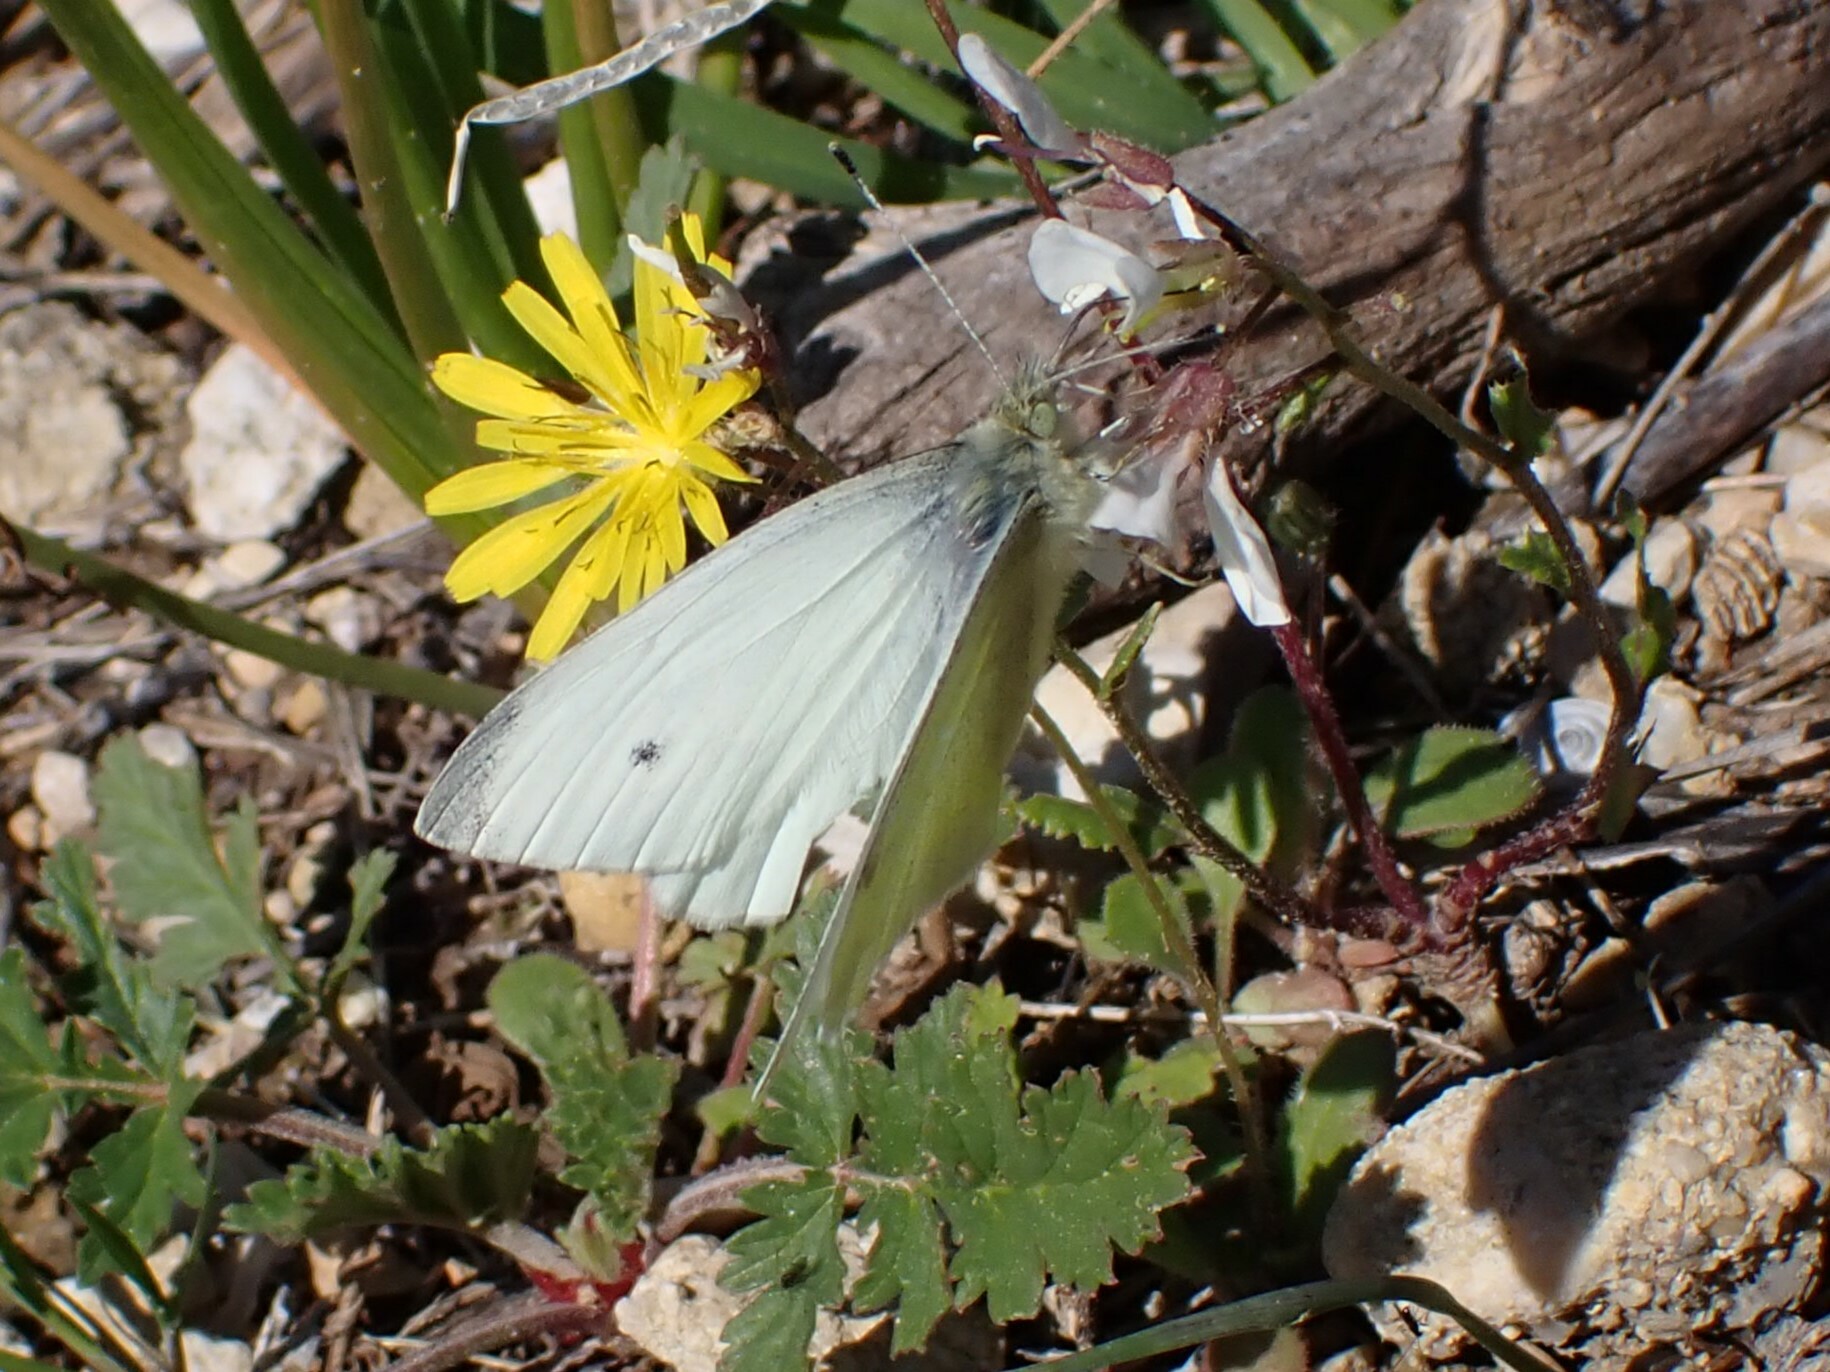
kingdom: Animalia
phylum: Arthropoda
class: Insecta
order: Lepidoptera
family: Pieridae
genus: Pieris
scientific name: Pieris rapae
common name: Small white
